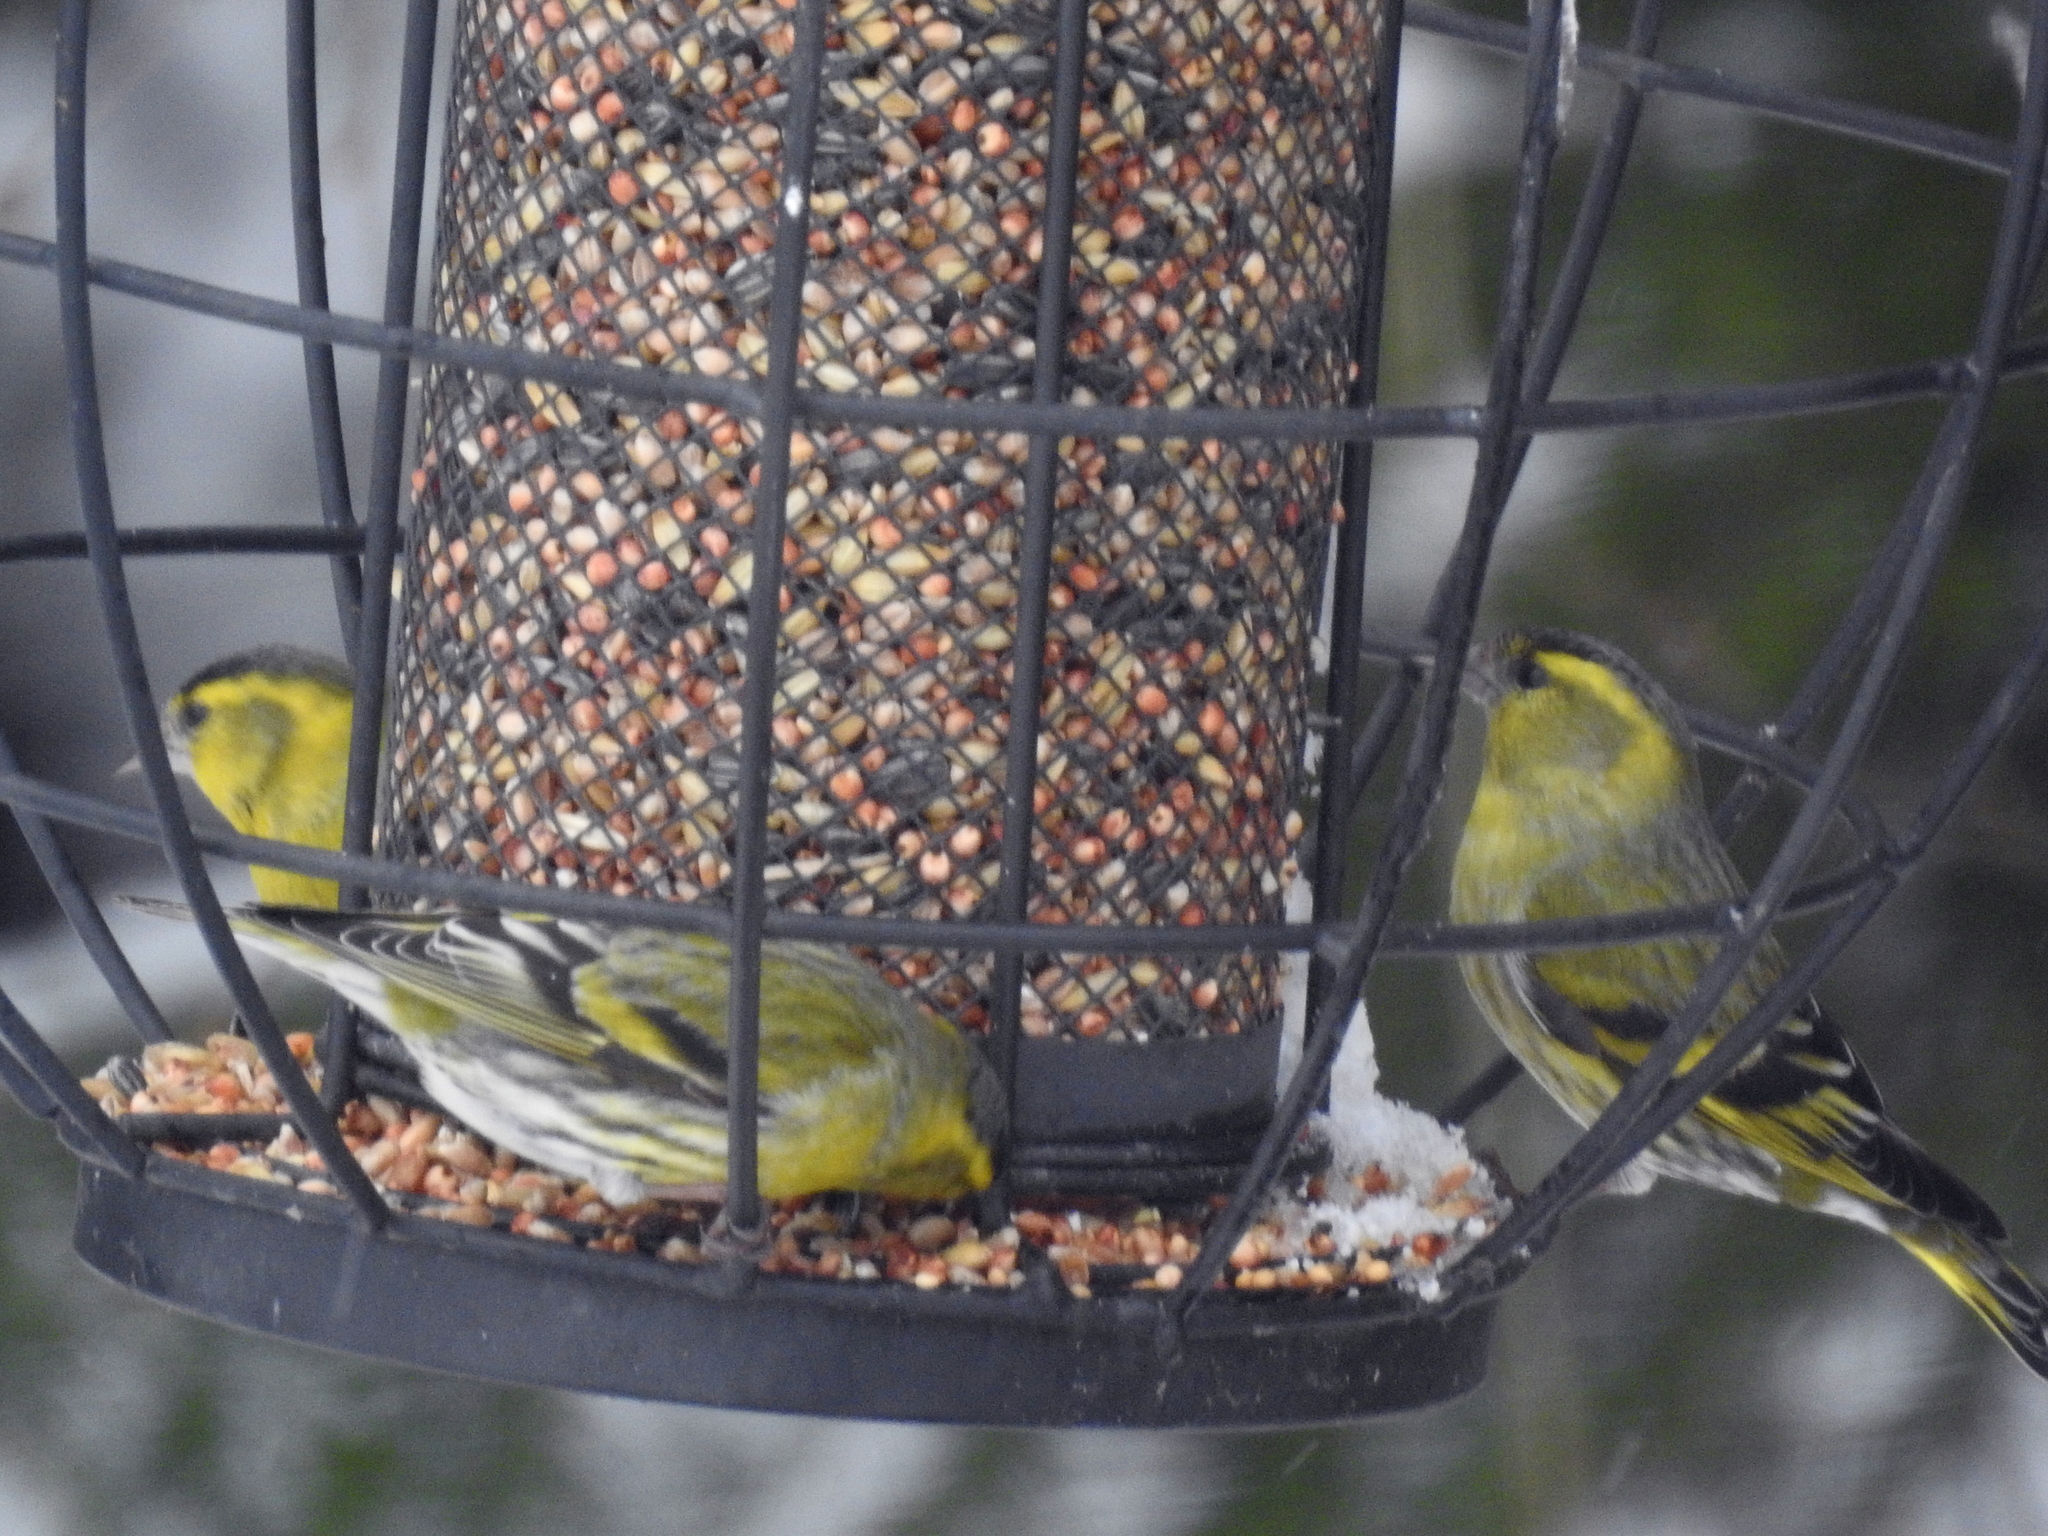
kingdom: Animalia
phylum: Chordata
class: Aves
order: Passeriformes
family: Fringillidae
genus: Spinus
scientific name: Spinus spinus
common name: Eurasian siskin
